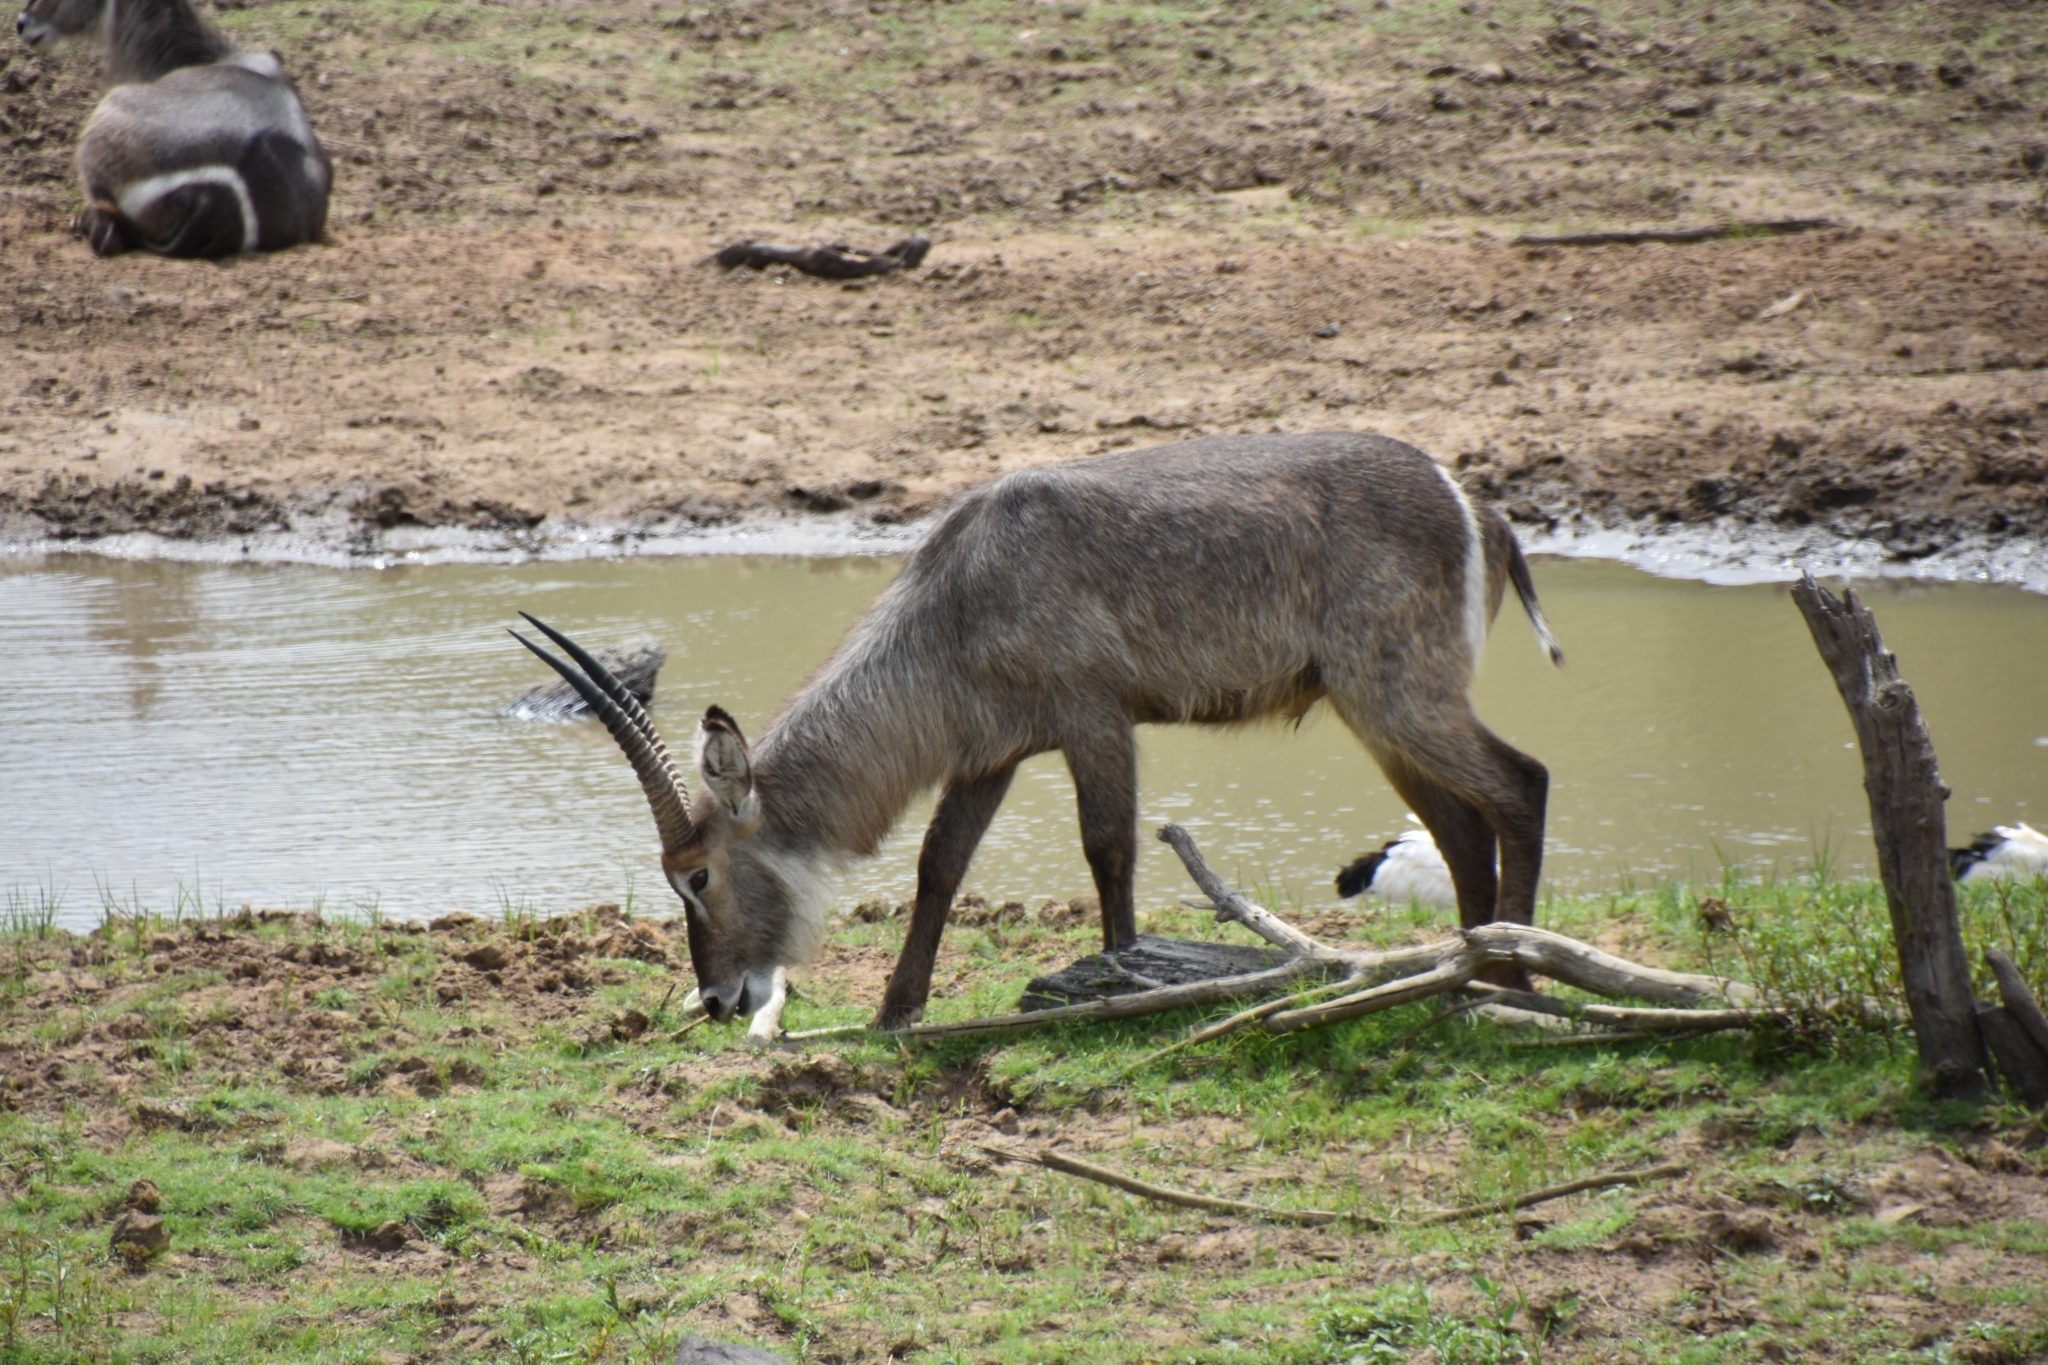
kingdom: Animalia
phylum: Chordata
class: Mammalia
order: Artiodactyla
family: Bovidae
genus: Kobus
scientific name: Kobus ellipsiprymnus
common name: Waterbuck
